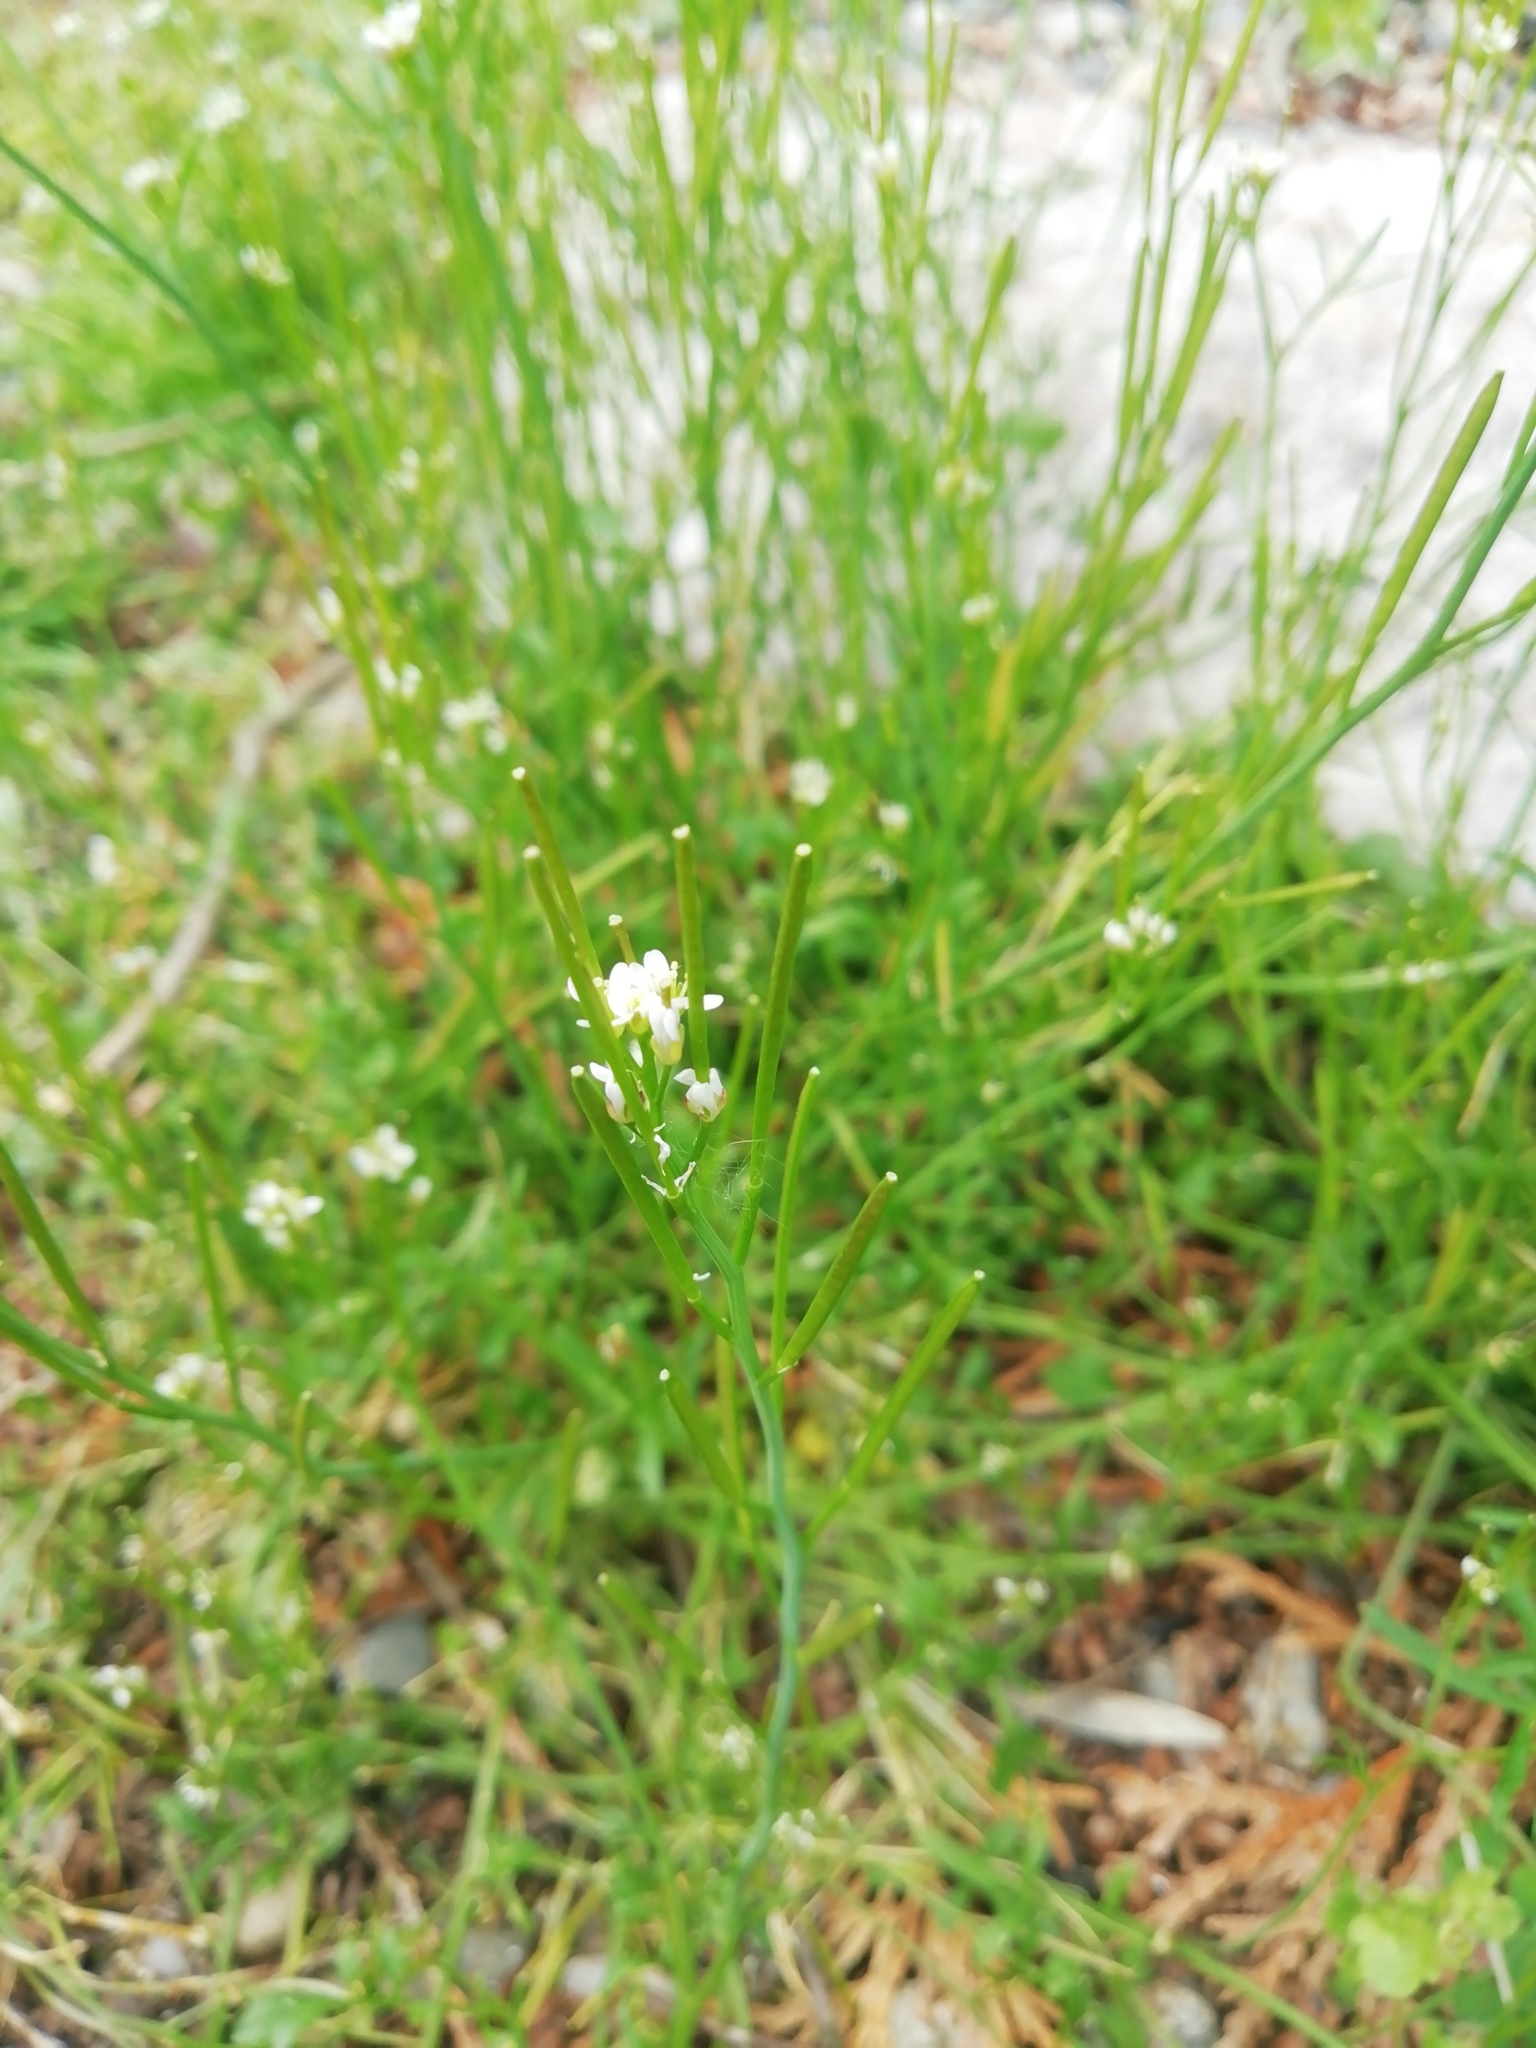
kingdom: Plantae
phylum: Tracheophyta
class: Magnoliopsida
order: Brassicales
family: Brassicaceae
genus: Cardamine
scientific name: Cardamine hirsuta
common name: Hairy bittercress
